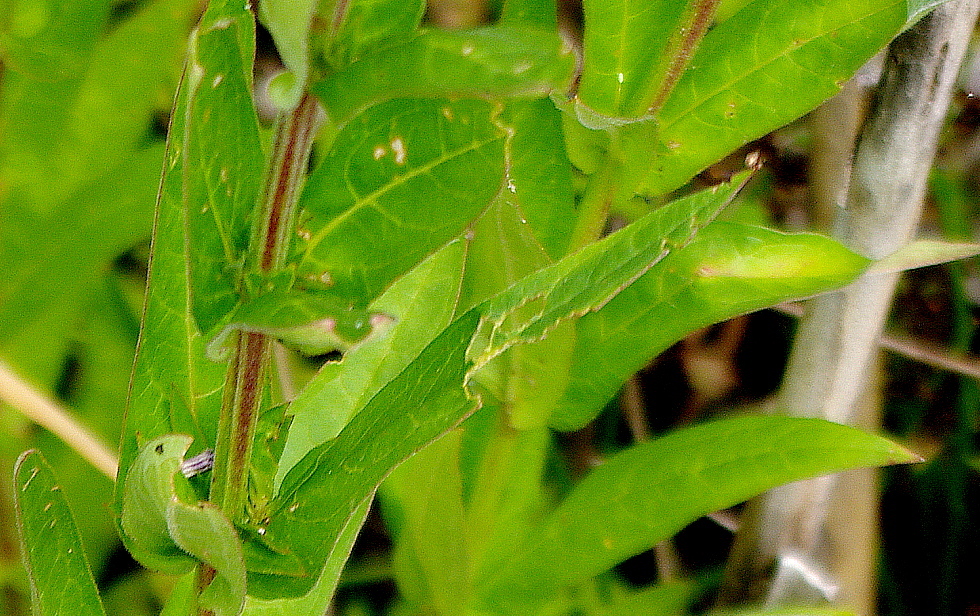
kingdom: Plantae
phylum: Tracheophyta
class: Magnoliopsida
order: Myrtales
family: Lythraceae
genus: Lythrum
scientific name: Lythrum salicaria
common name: Purple loosestrife
